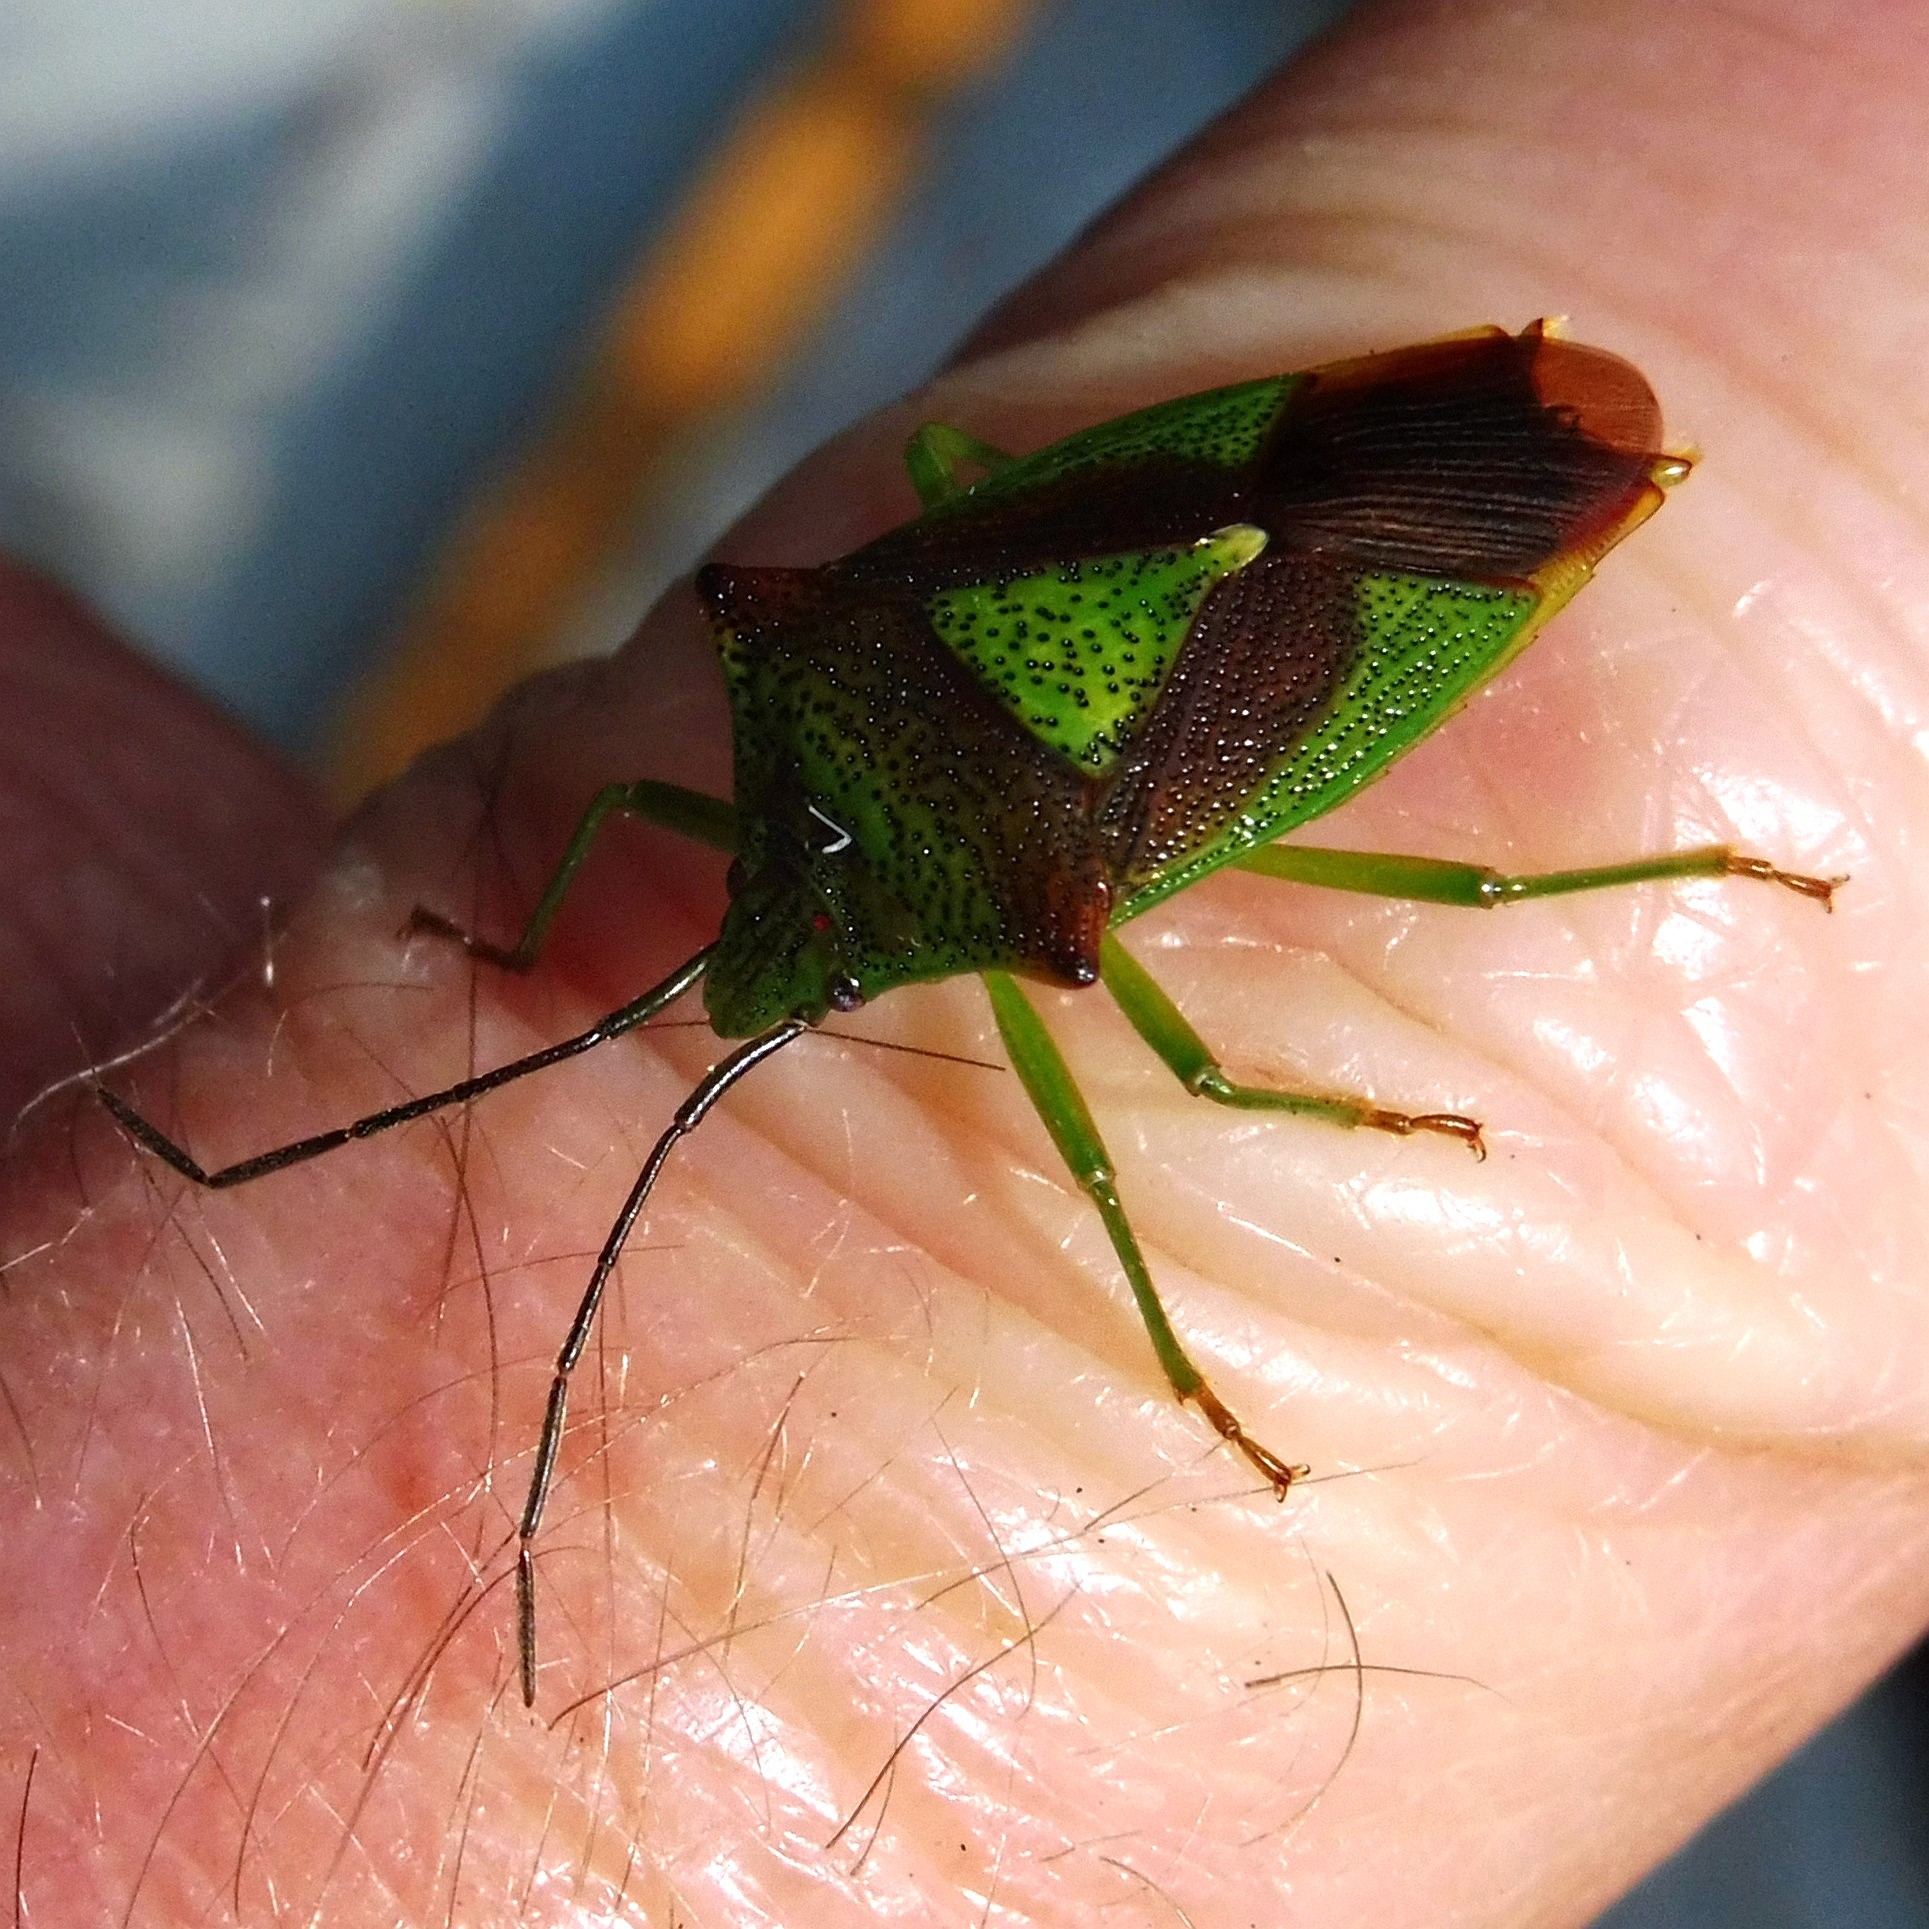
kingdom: Animalia
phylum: Arthropoda
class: Insecta
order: Hemiptera
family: Acanthosomatidae
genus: Acanthosoma
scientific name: Acanthosoma haemorrhoidale
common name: Hawthorn shieldbug
